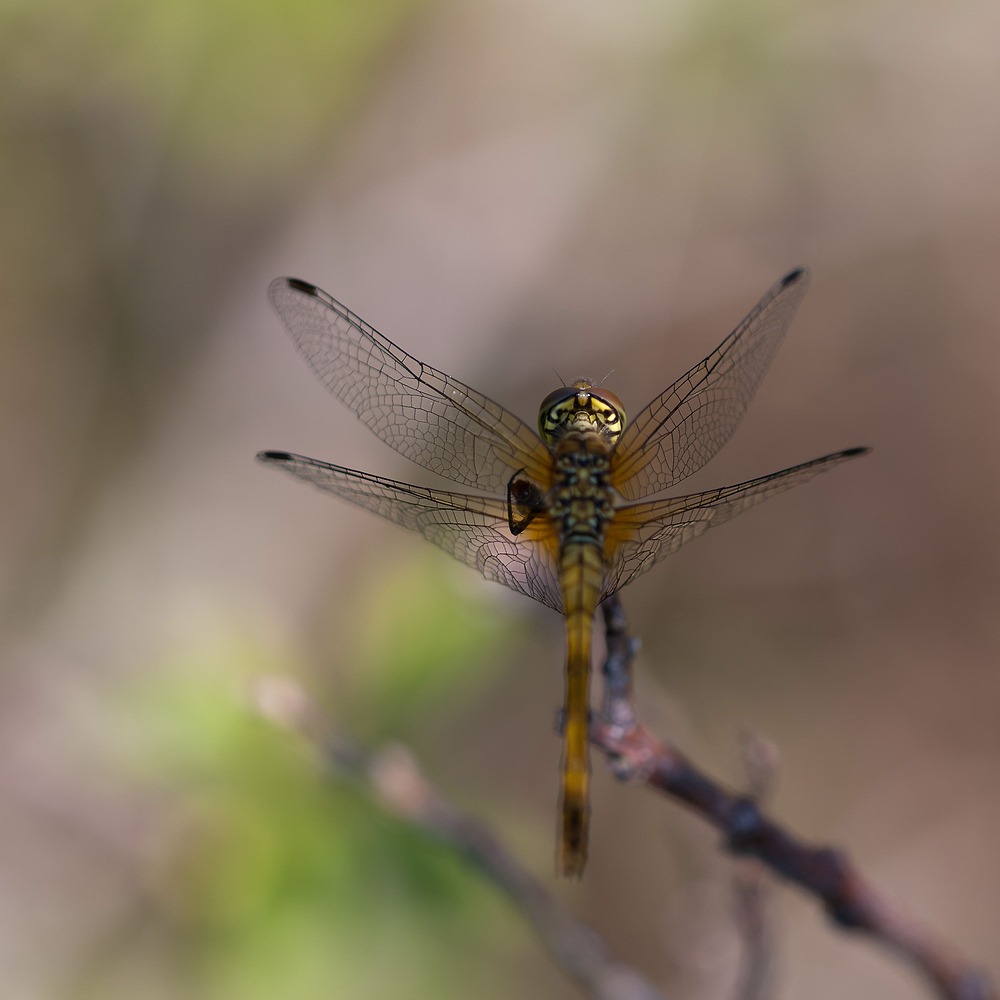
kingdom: Animalia
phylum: Arthropoda
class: Insecta
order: Odonata
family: Libellulidae
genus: Sympetrum
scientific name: Sympetrum sanguineum
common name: Ruddy darter
